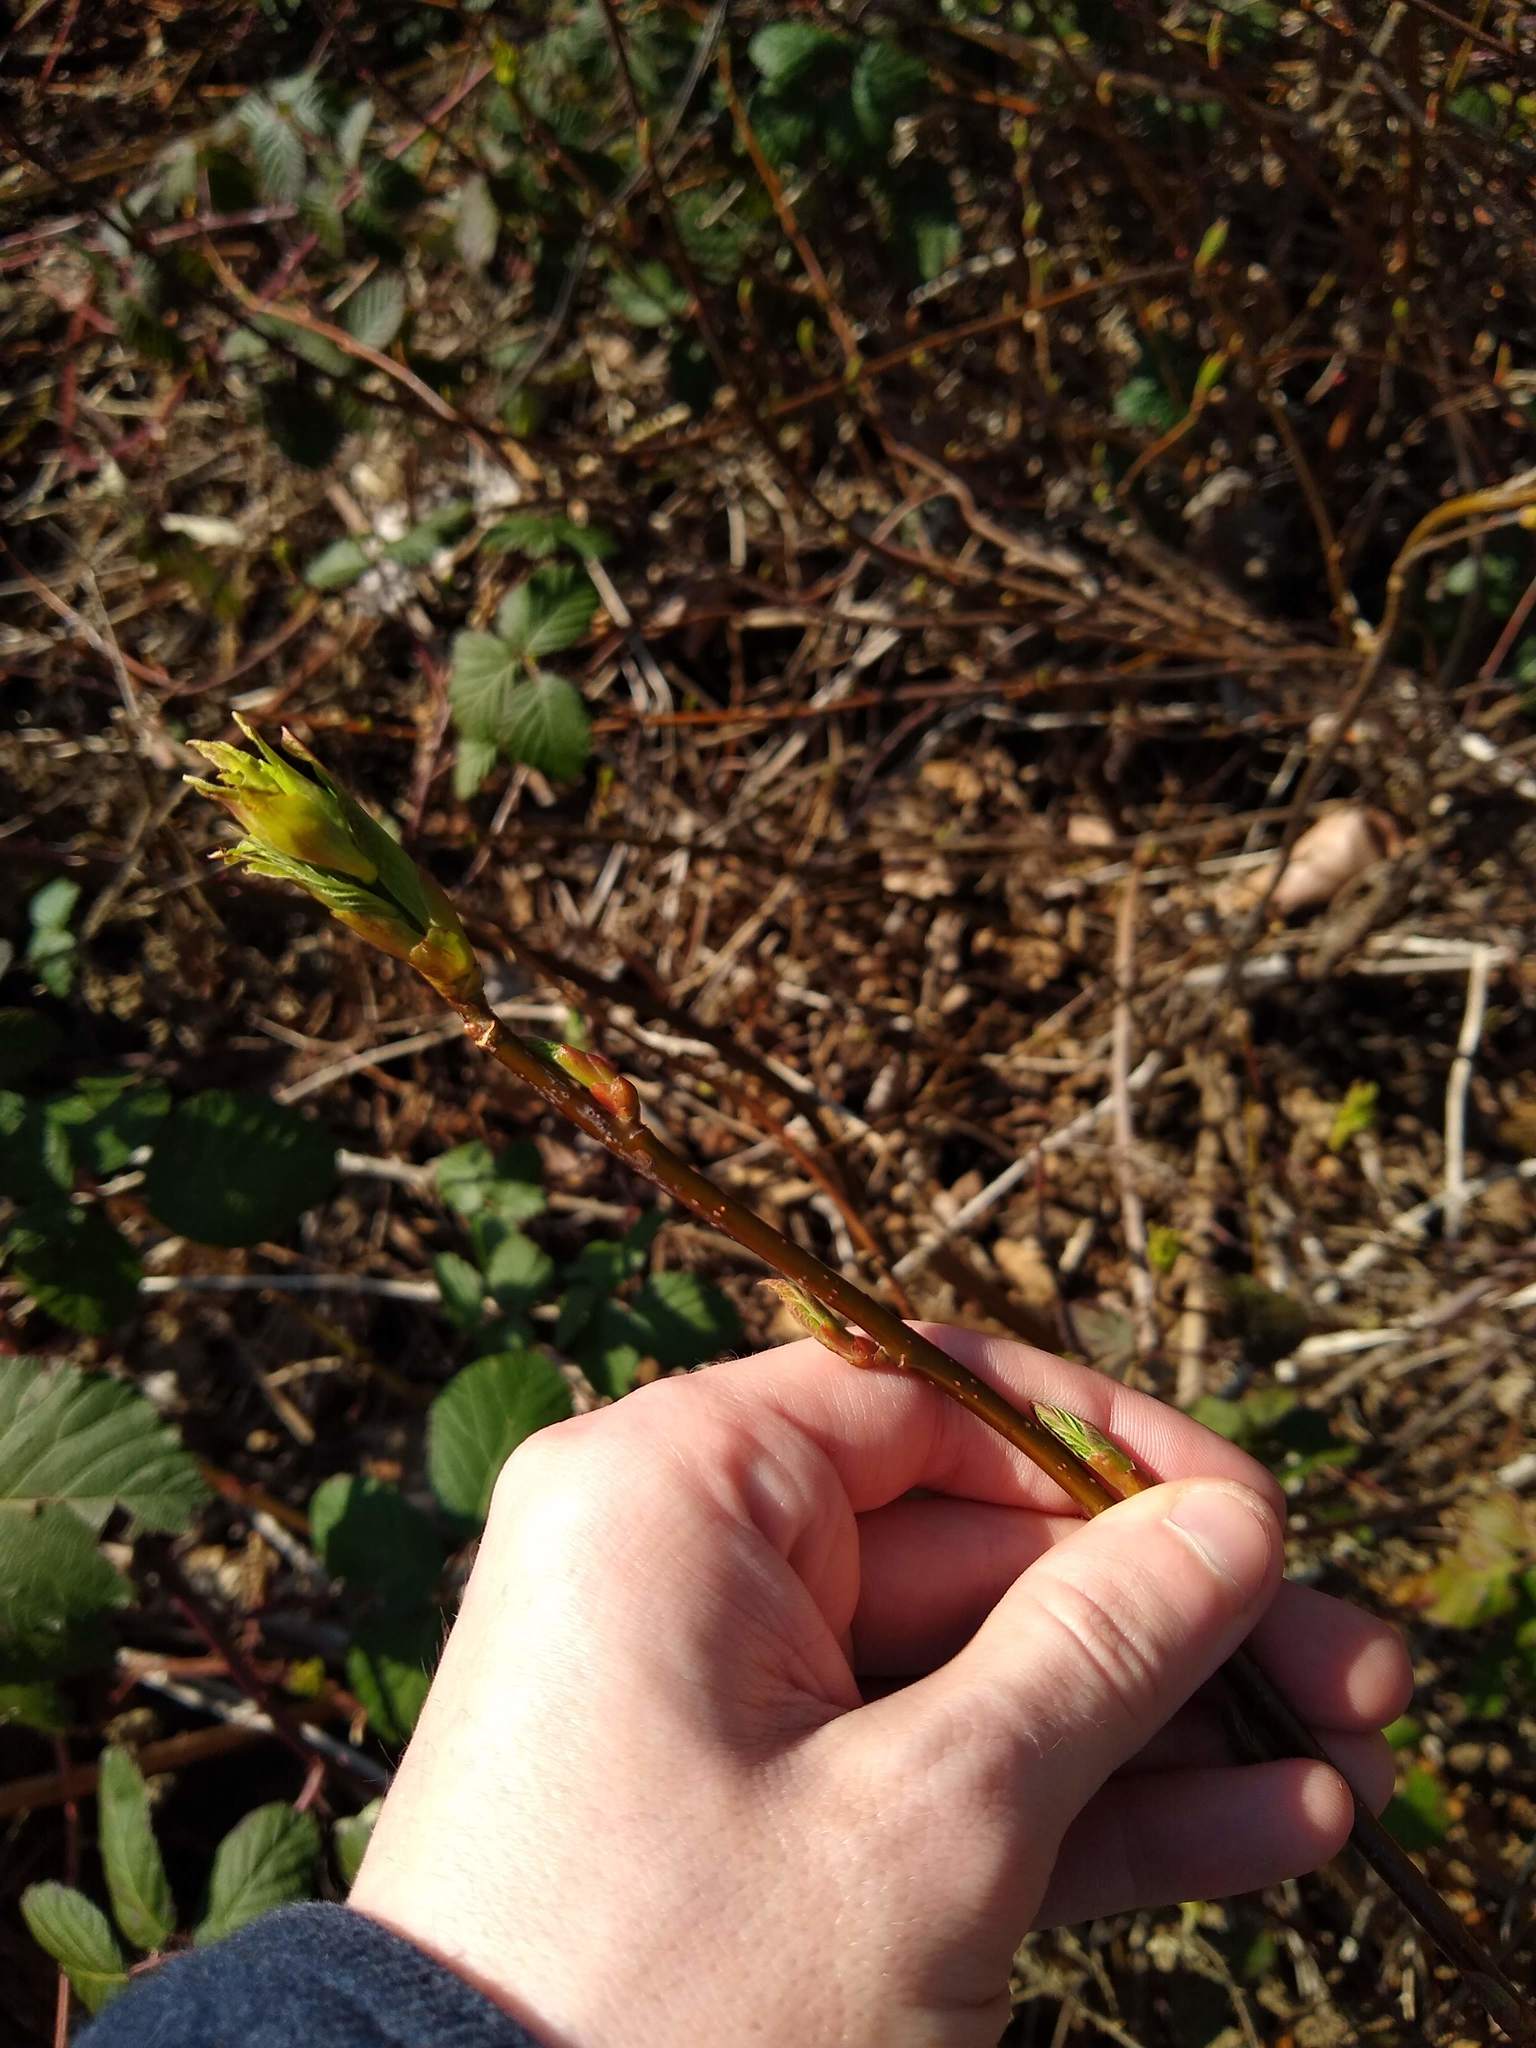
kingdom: Plantae
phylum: Tracheophyta
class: Magnoliopsida
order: Rosales
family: Rosaceae
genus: Oemleria
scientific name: Oemleria cerasiformis
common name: Osoberry
